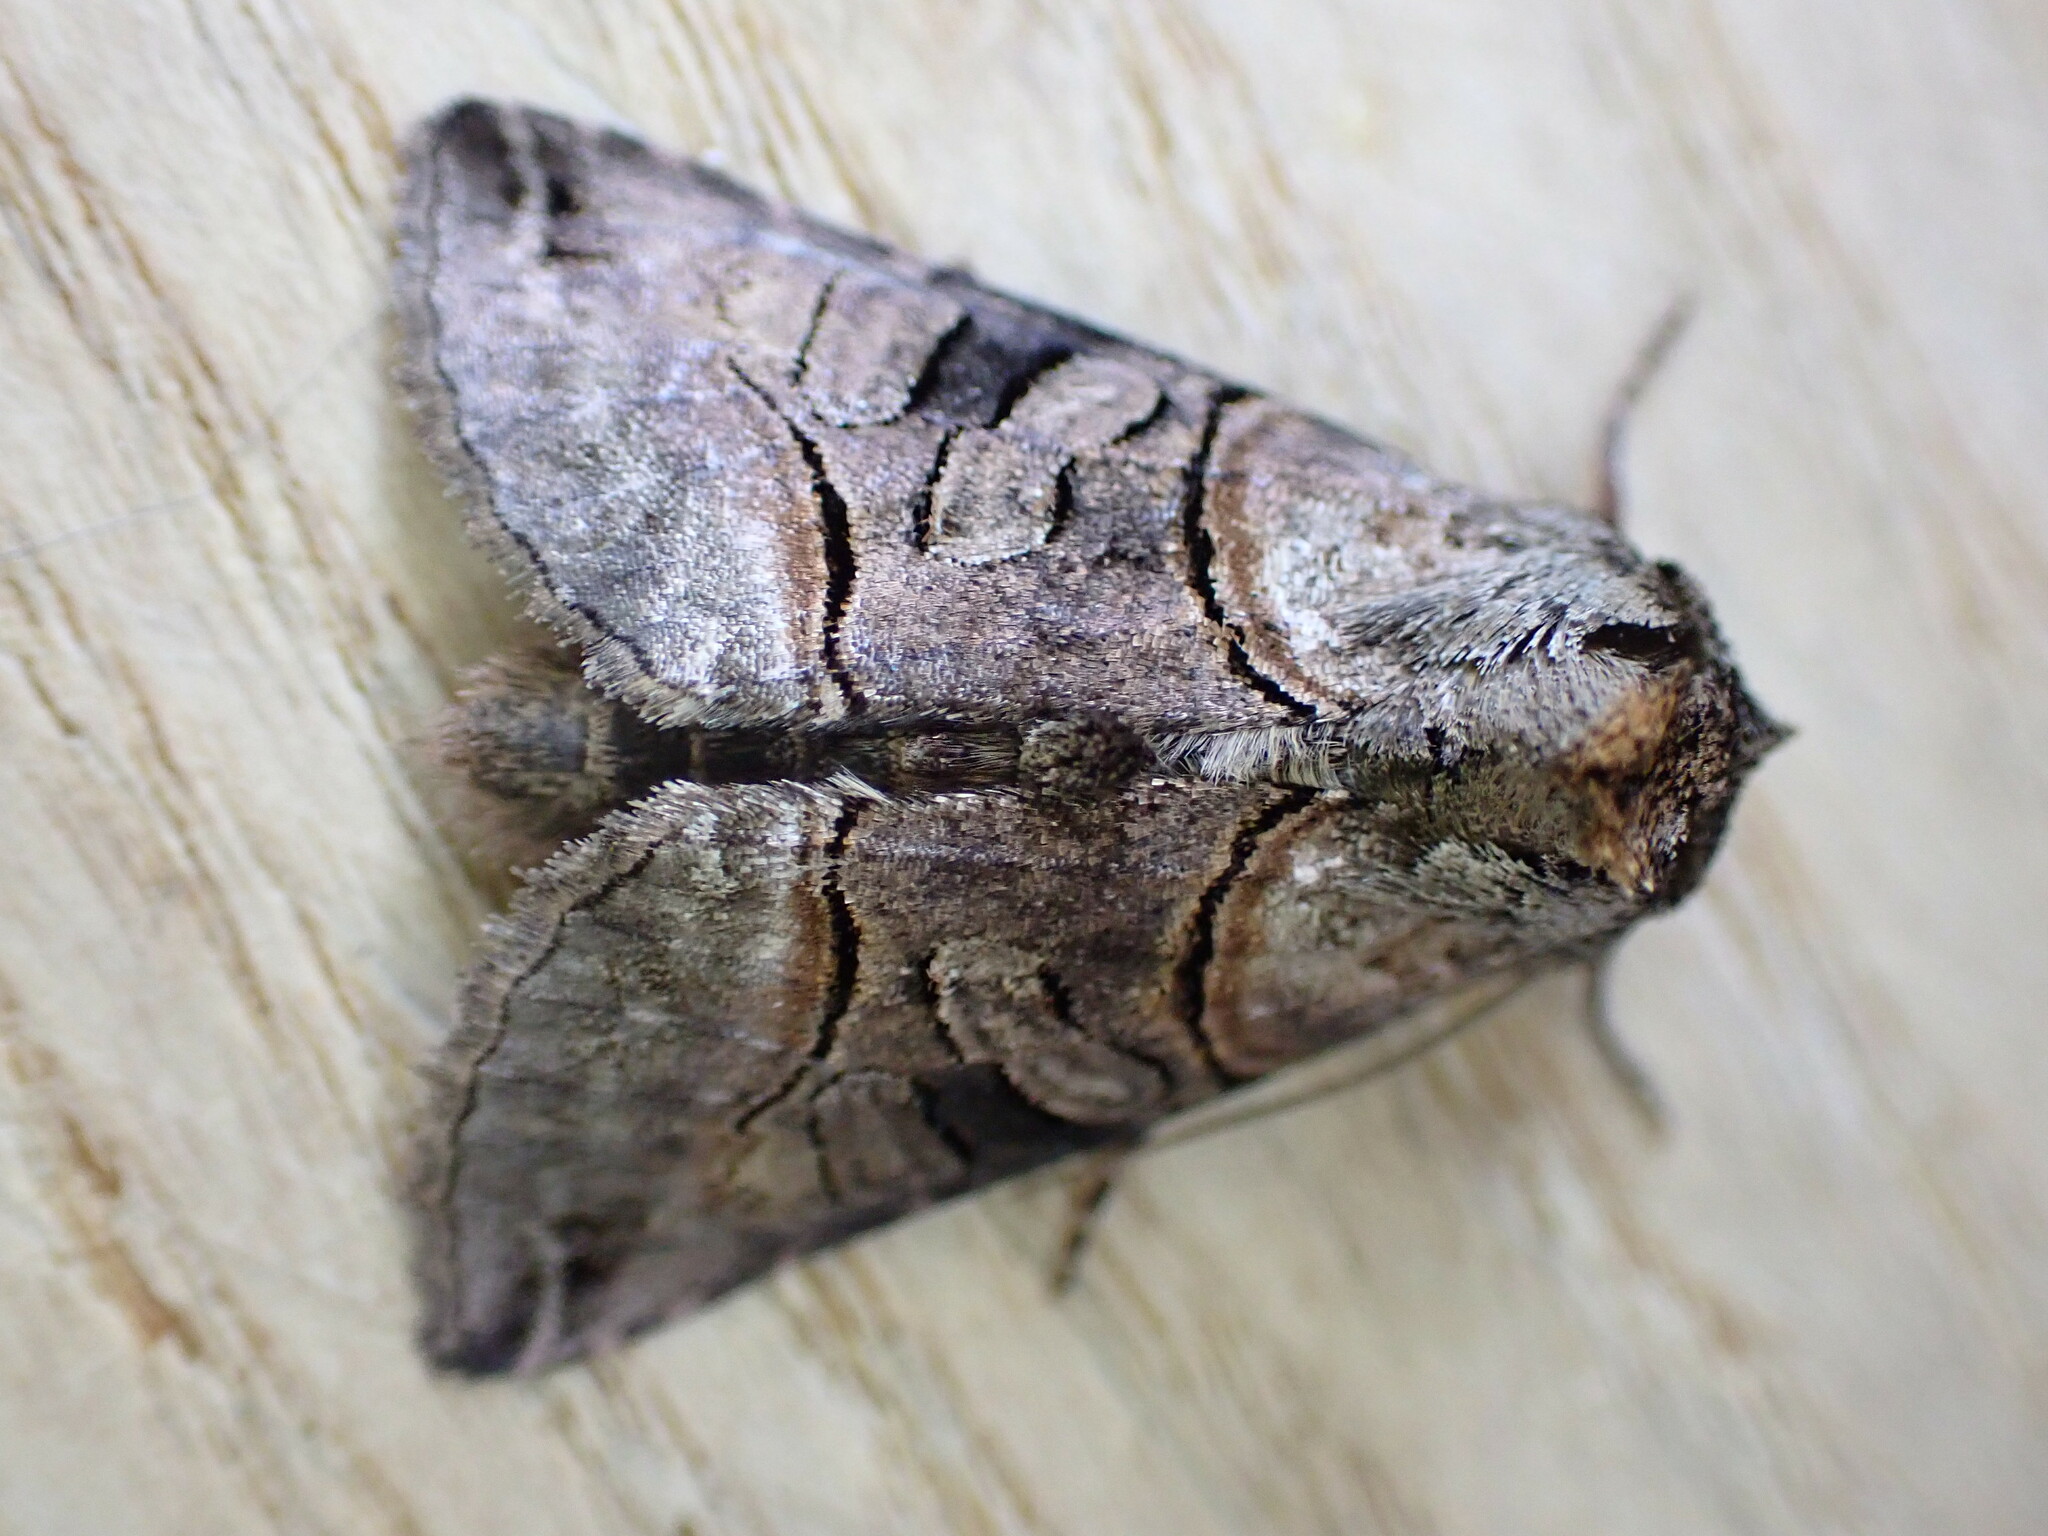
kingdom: Animalia
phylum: Arthropoda
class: Insecta
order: Lepidoptera
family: Noctuidae
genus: Abrostola
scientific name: Abrostola tripartita
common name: Spectacle
